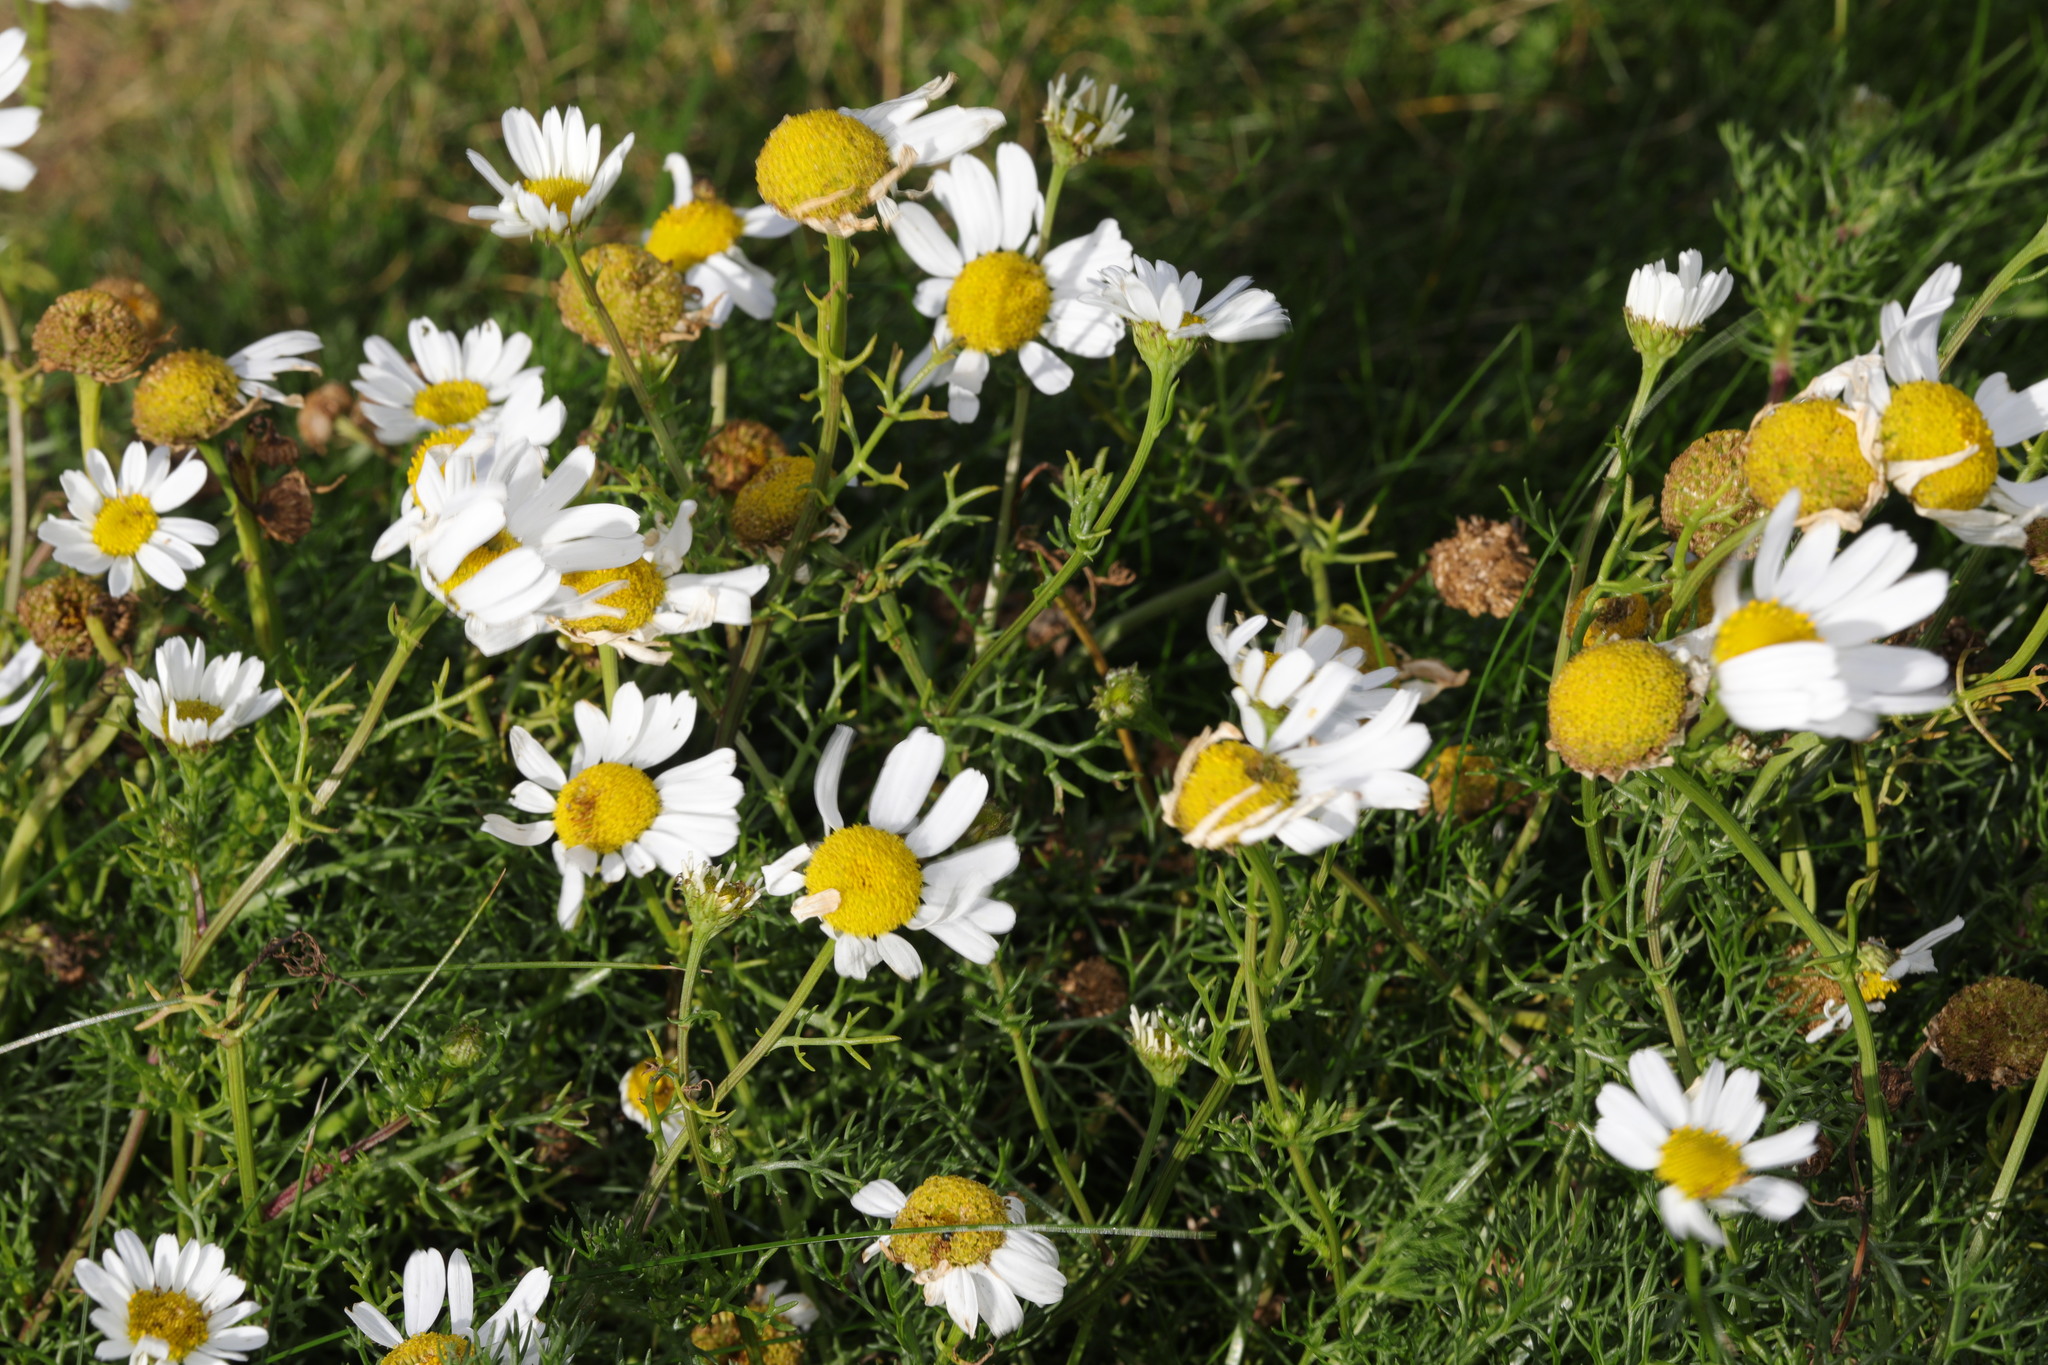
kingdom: Plantae
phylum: Tracheophyta
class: Magnoliopsida
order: Asterales
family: Asteraceae
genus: Tripleurospermum
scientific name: Tripleurospermum maritimum
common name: Sea mayweed
